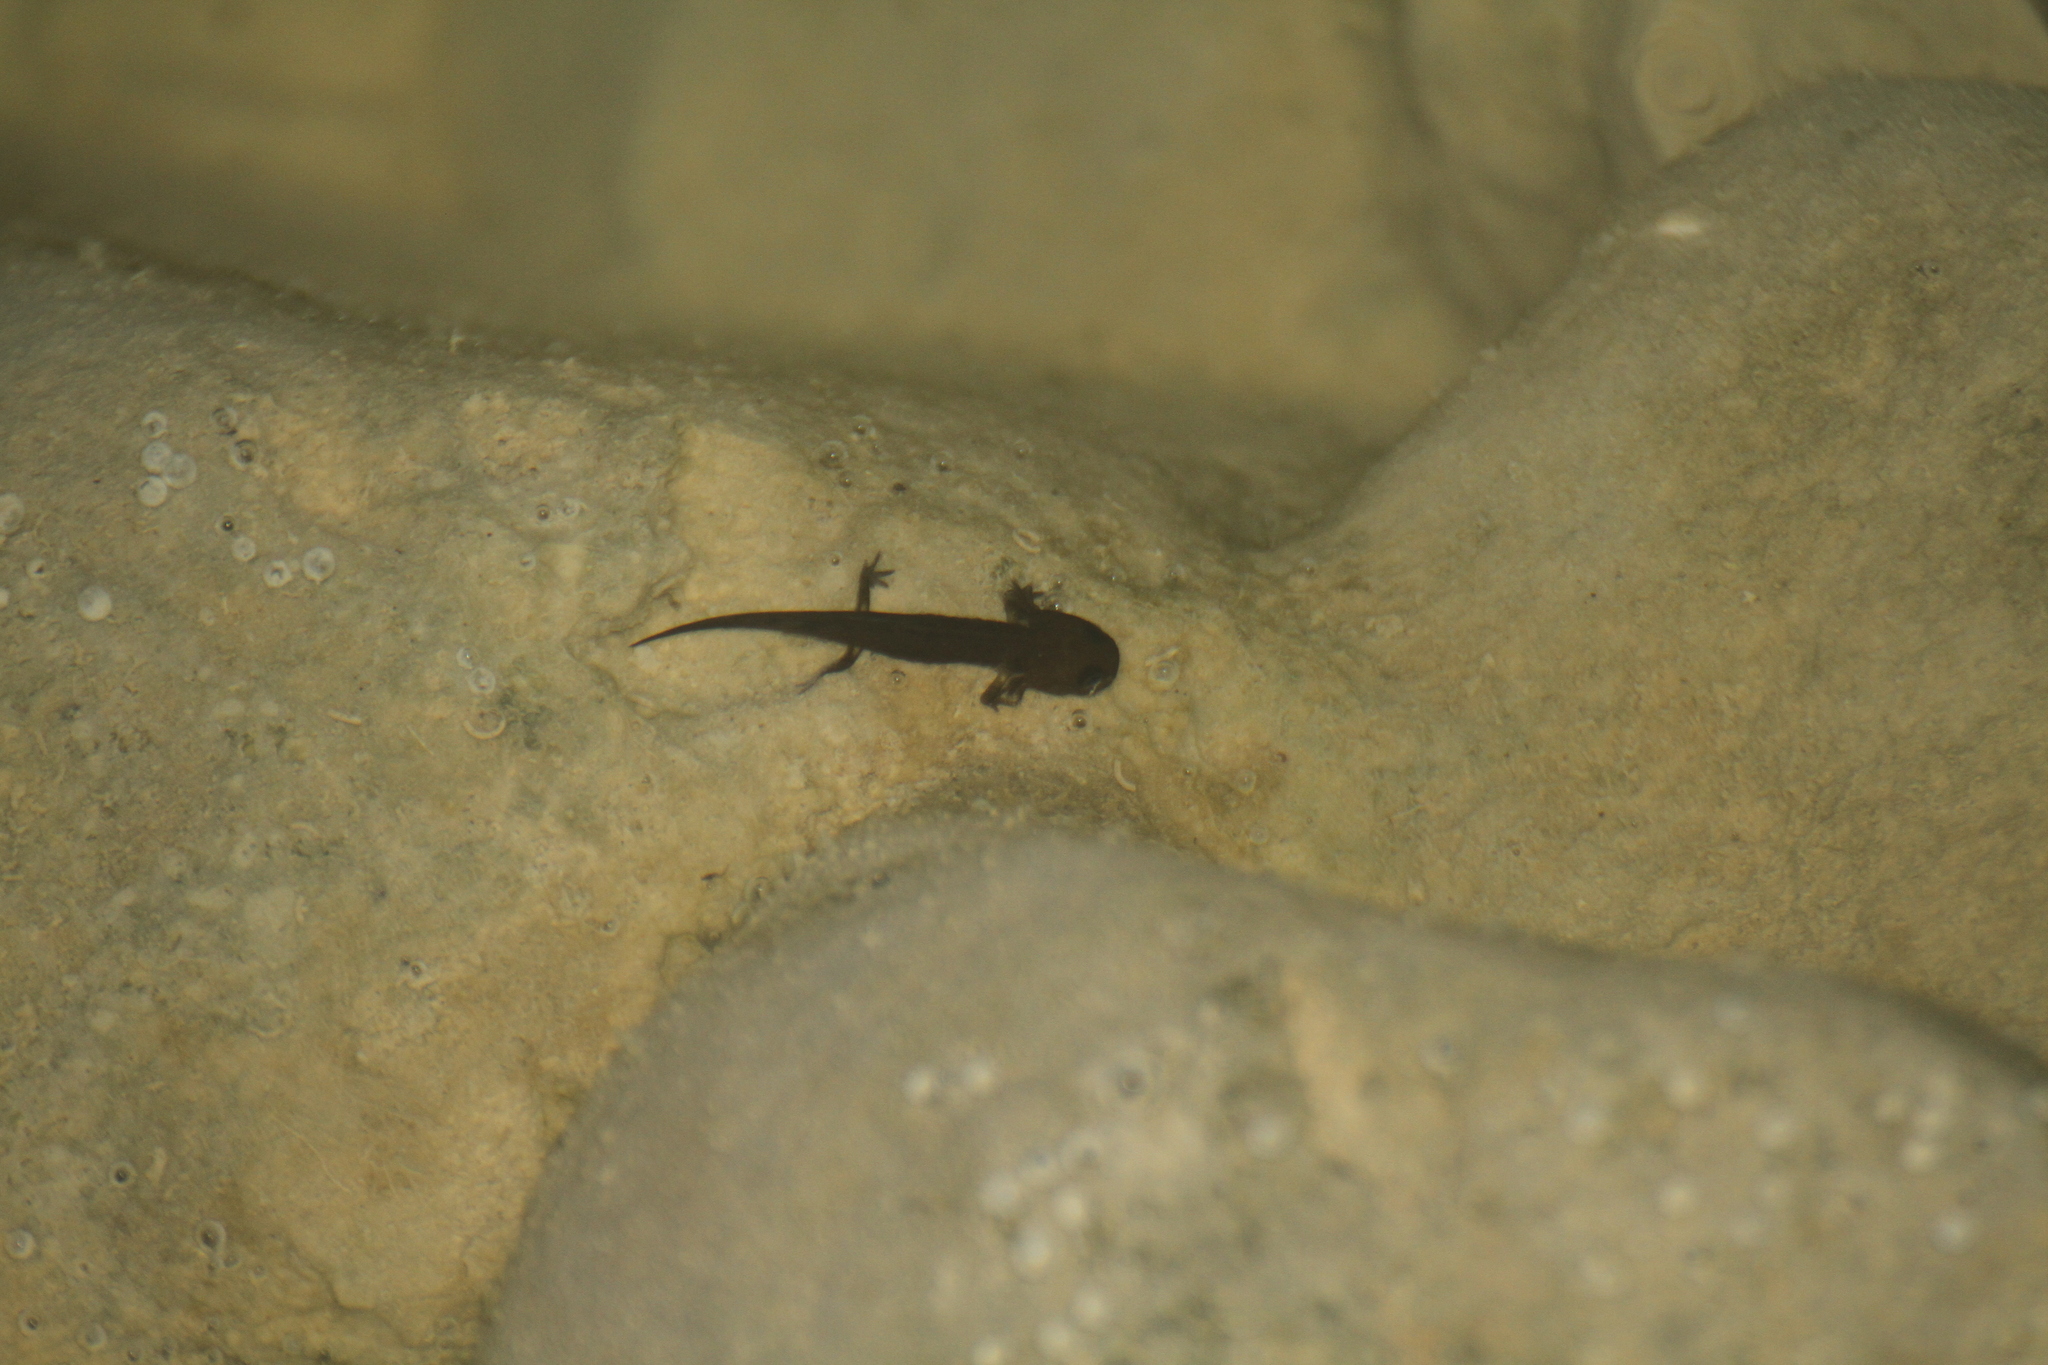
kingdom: Animalia
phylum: Chordata
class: Amphibia
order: Caudata
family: Salamandridae
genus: Salamandra
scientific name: Salamandra salamandra
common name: Fire salamander
